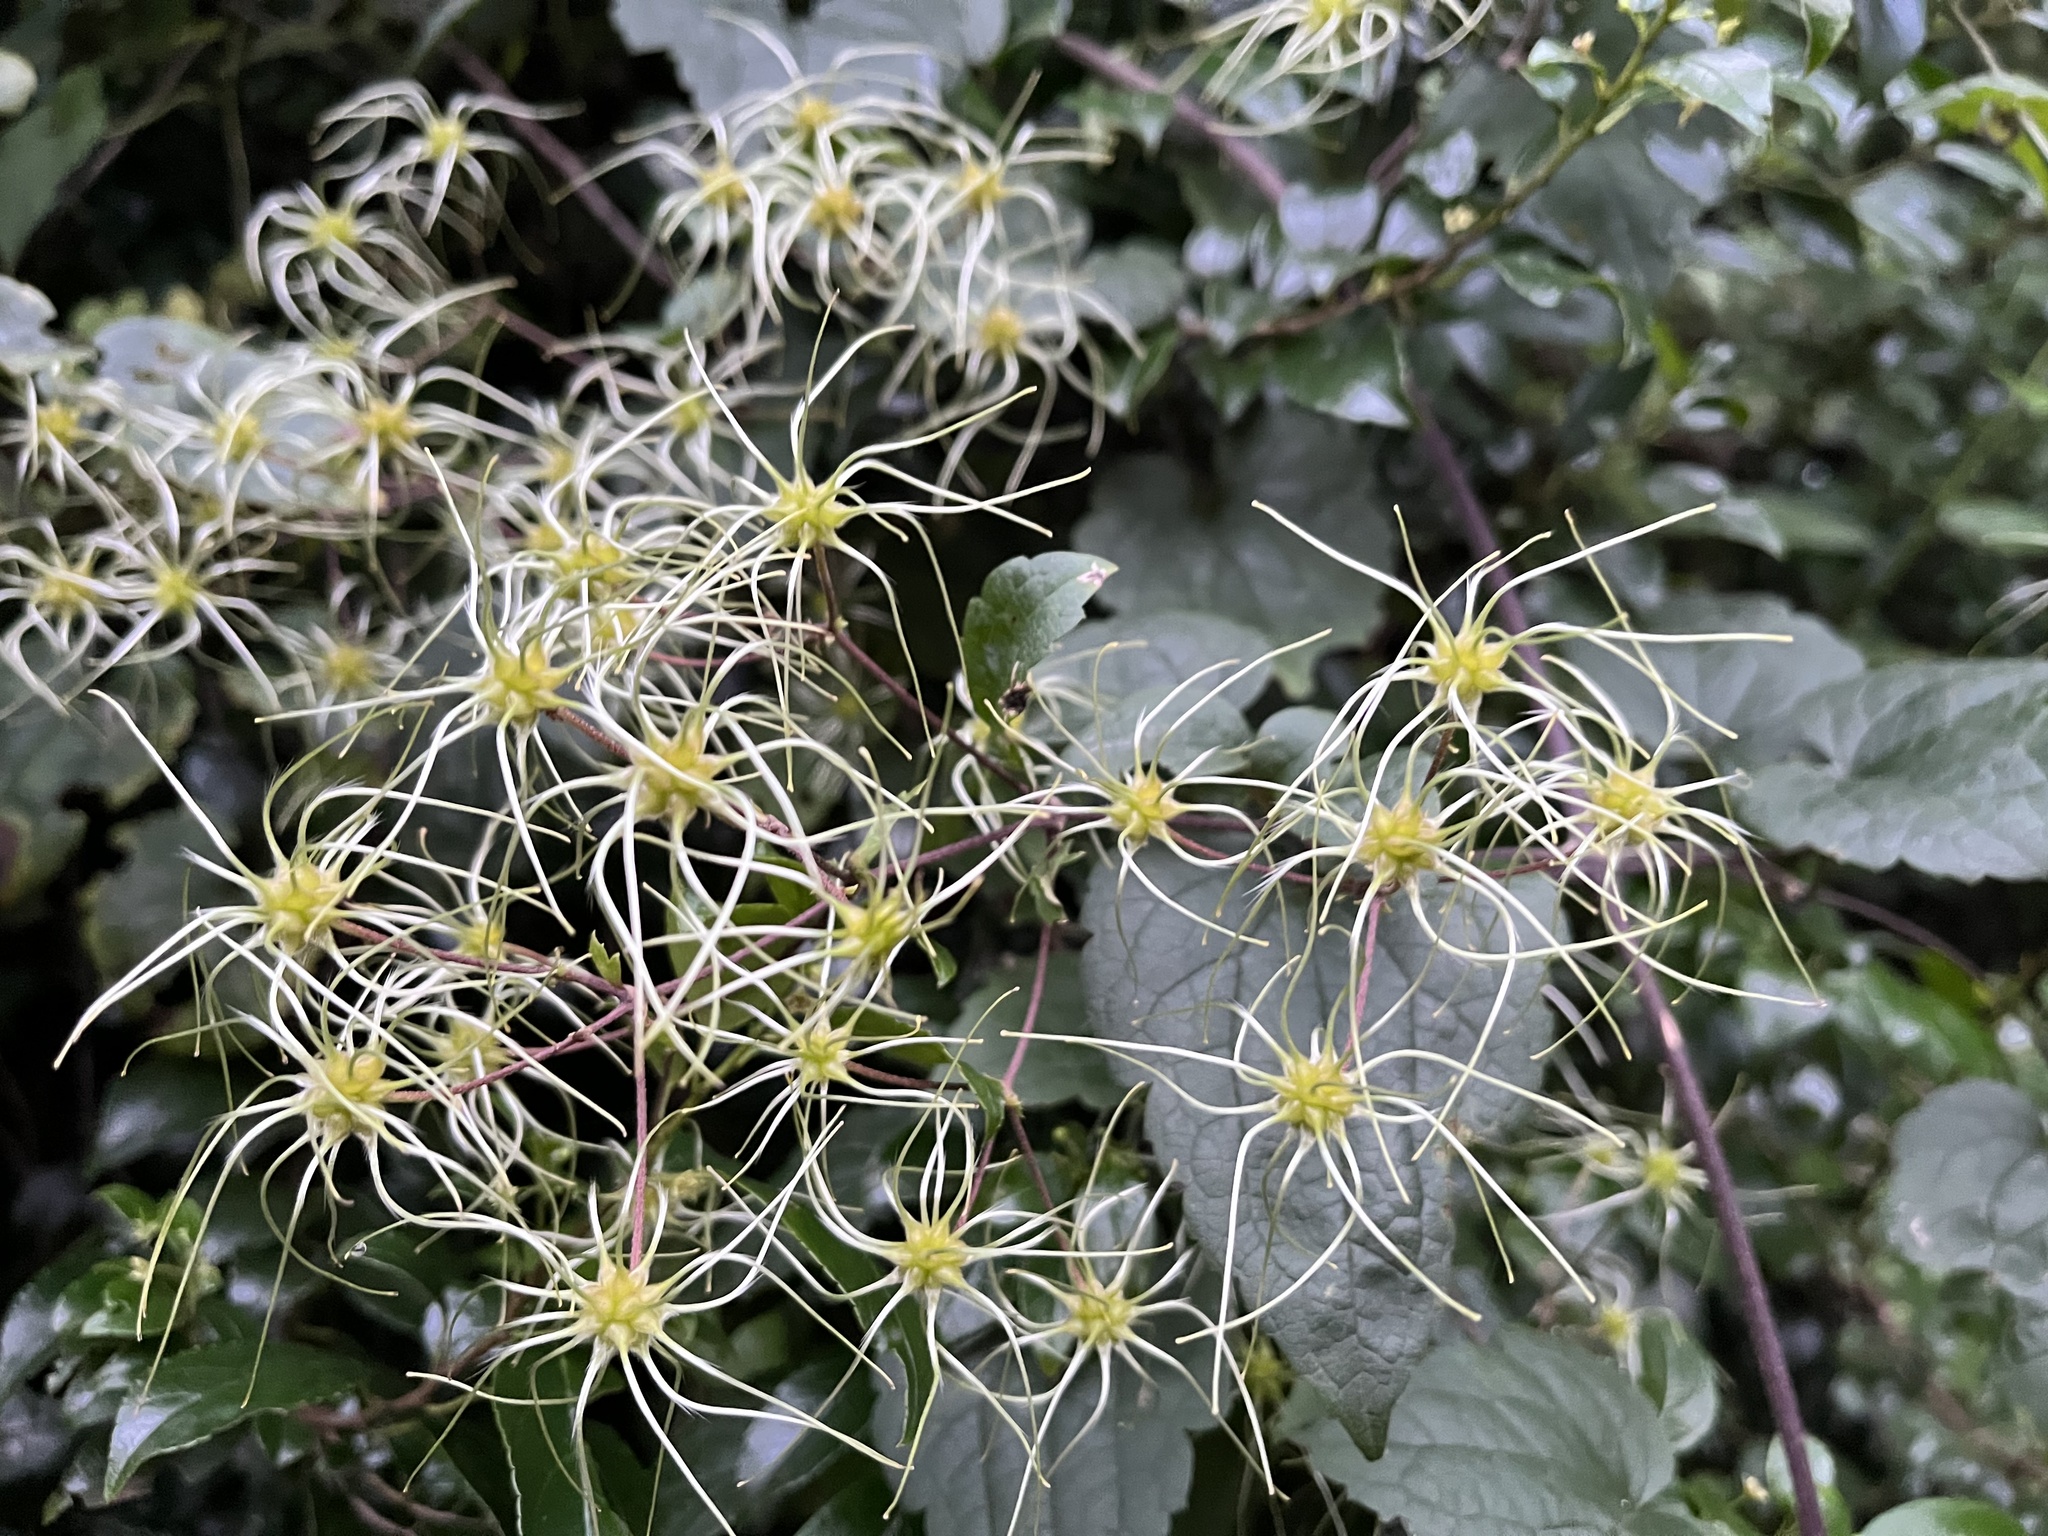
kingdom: Plantae
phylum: Tracheophyta
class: Magnoliopsida
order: Ranunculales
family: Ranunculaceae
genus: Clematis
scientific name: Clematis brachiata
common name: Traveler's-joy
